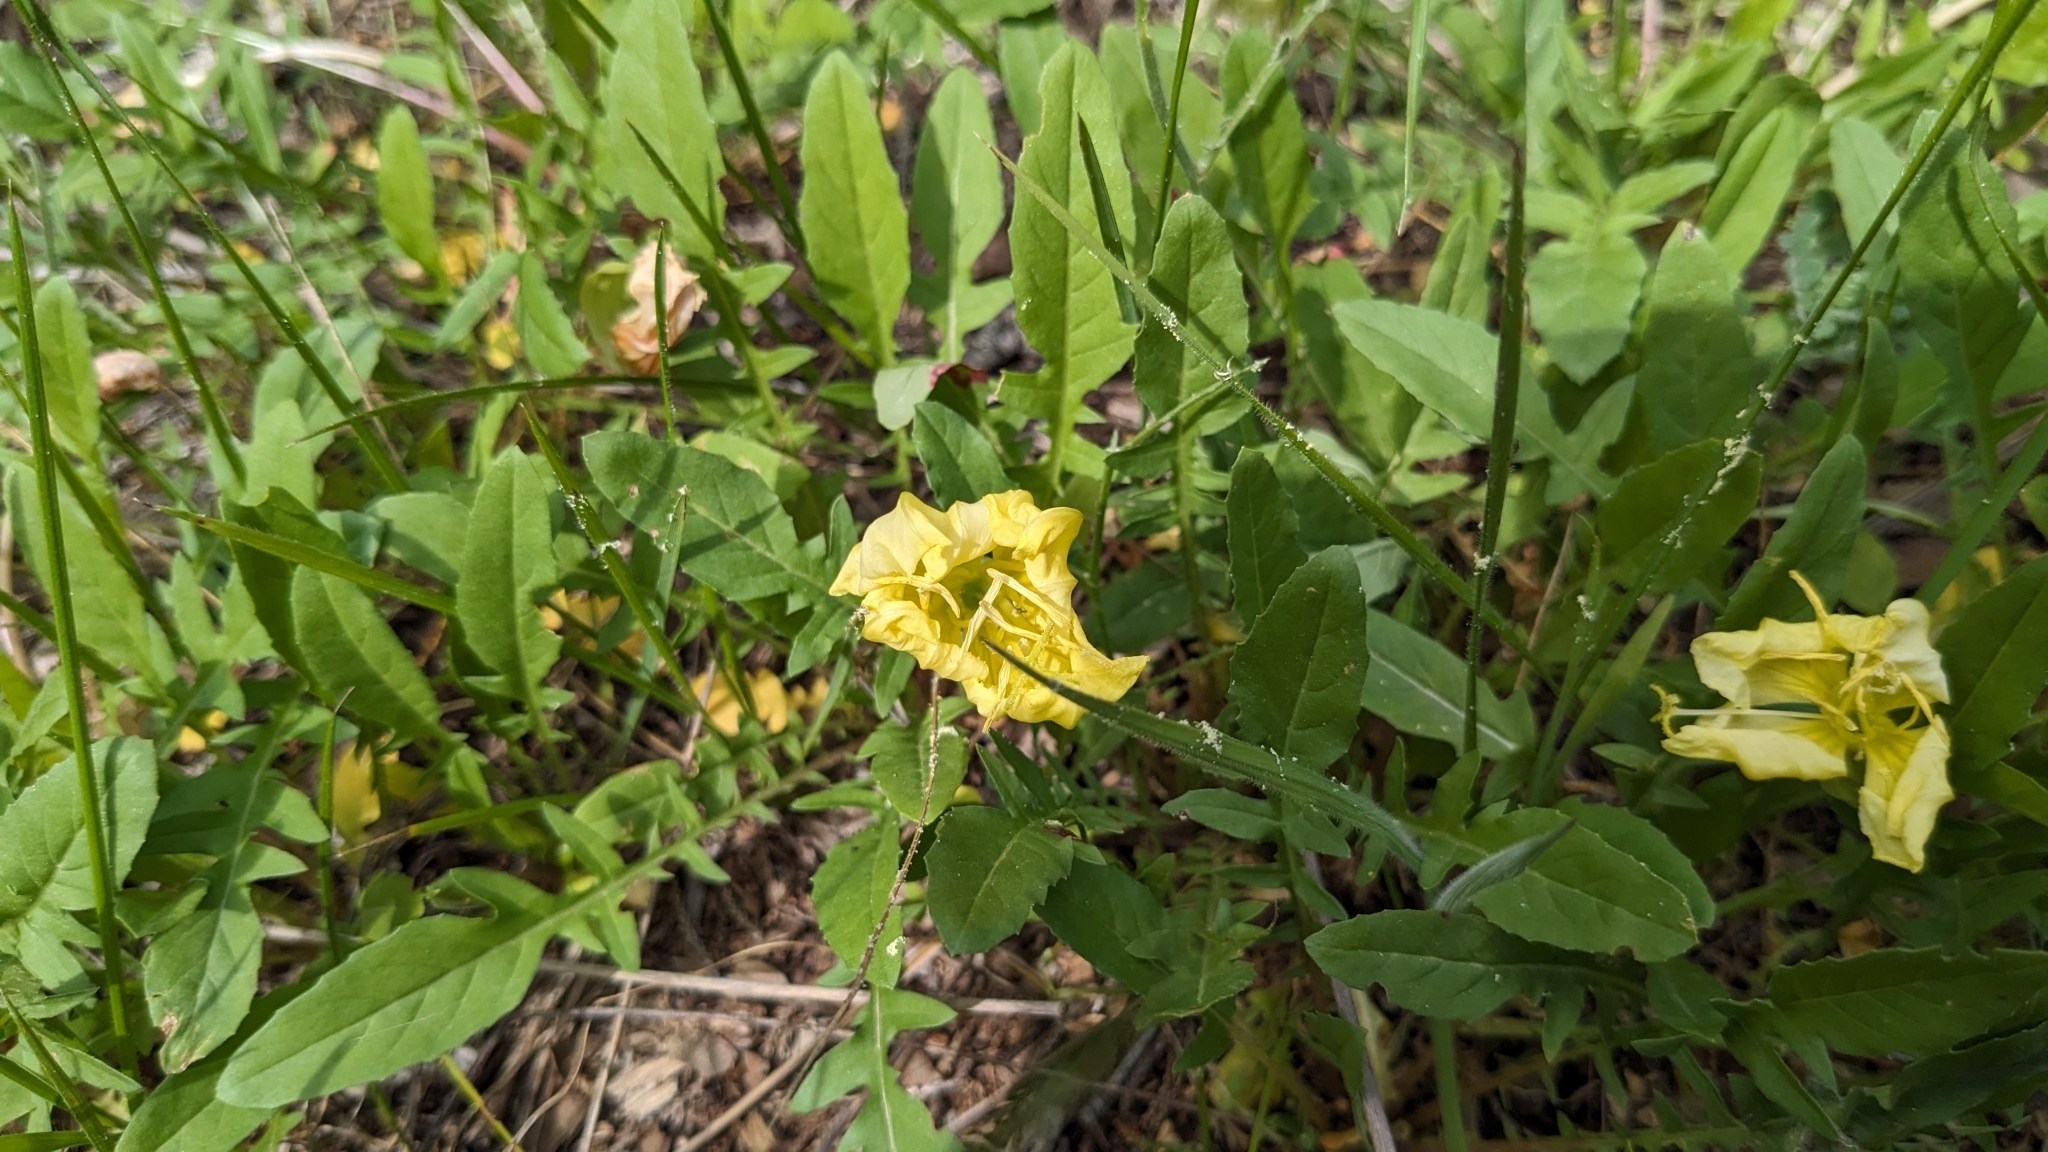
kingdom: Plantae
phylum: Tracheophyta
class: Magnoliopsida
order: Myrtales
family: Onagraceae
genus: Oenothera
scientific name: Oenothera triloba
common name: Sessile evening-primrose
